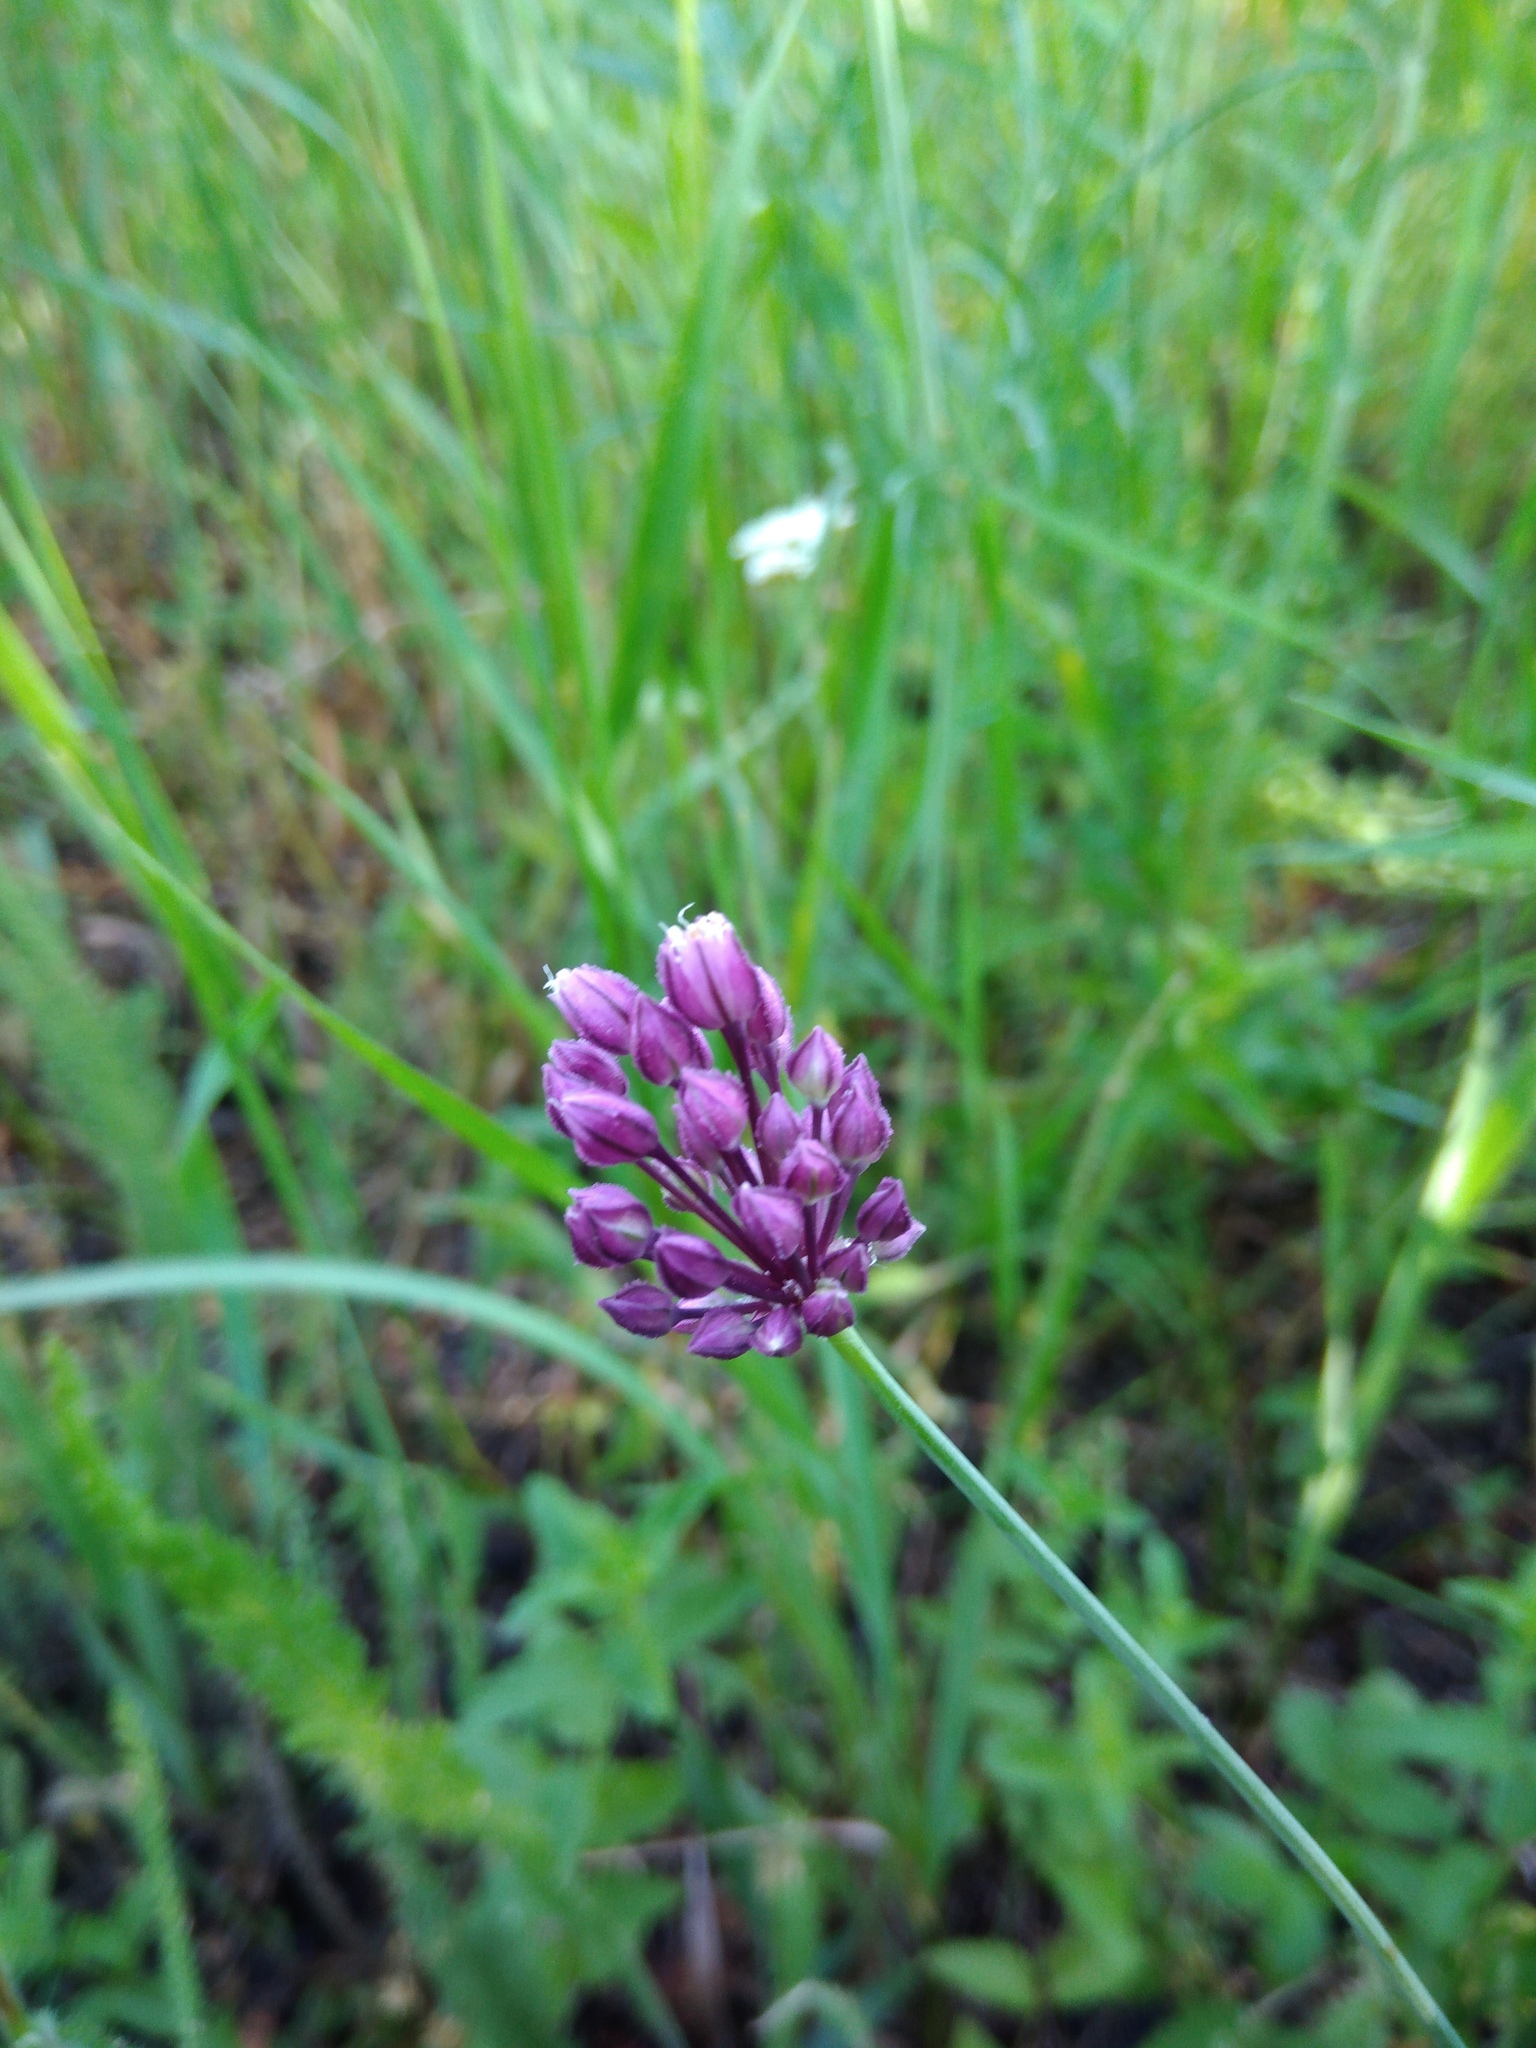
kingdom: Plantae
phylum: Tracheophyta
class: Liliopsida
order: Asparagales
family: Amaryllidaceae
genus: Allium
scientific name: Allium rotundum
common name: Sand leek
